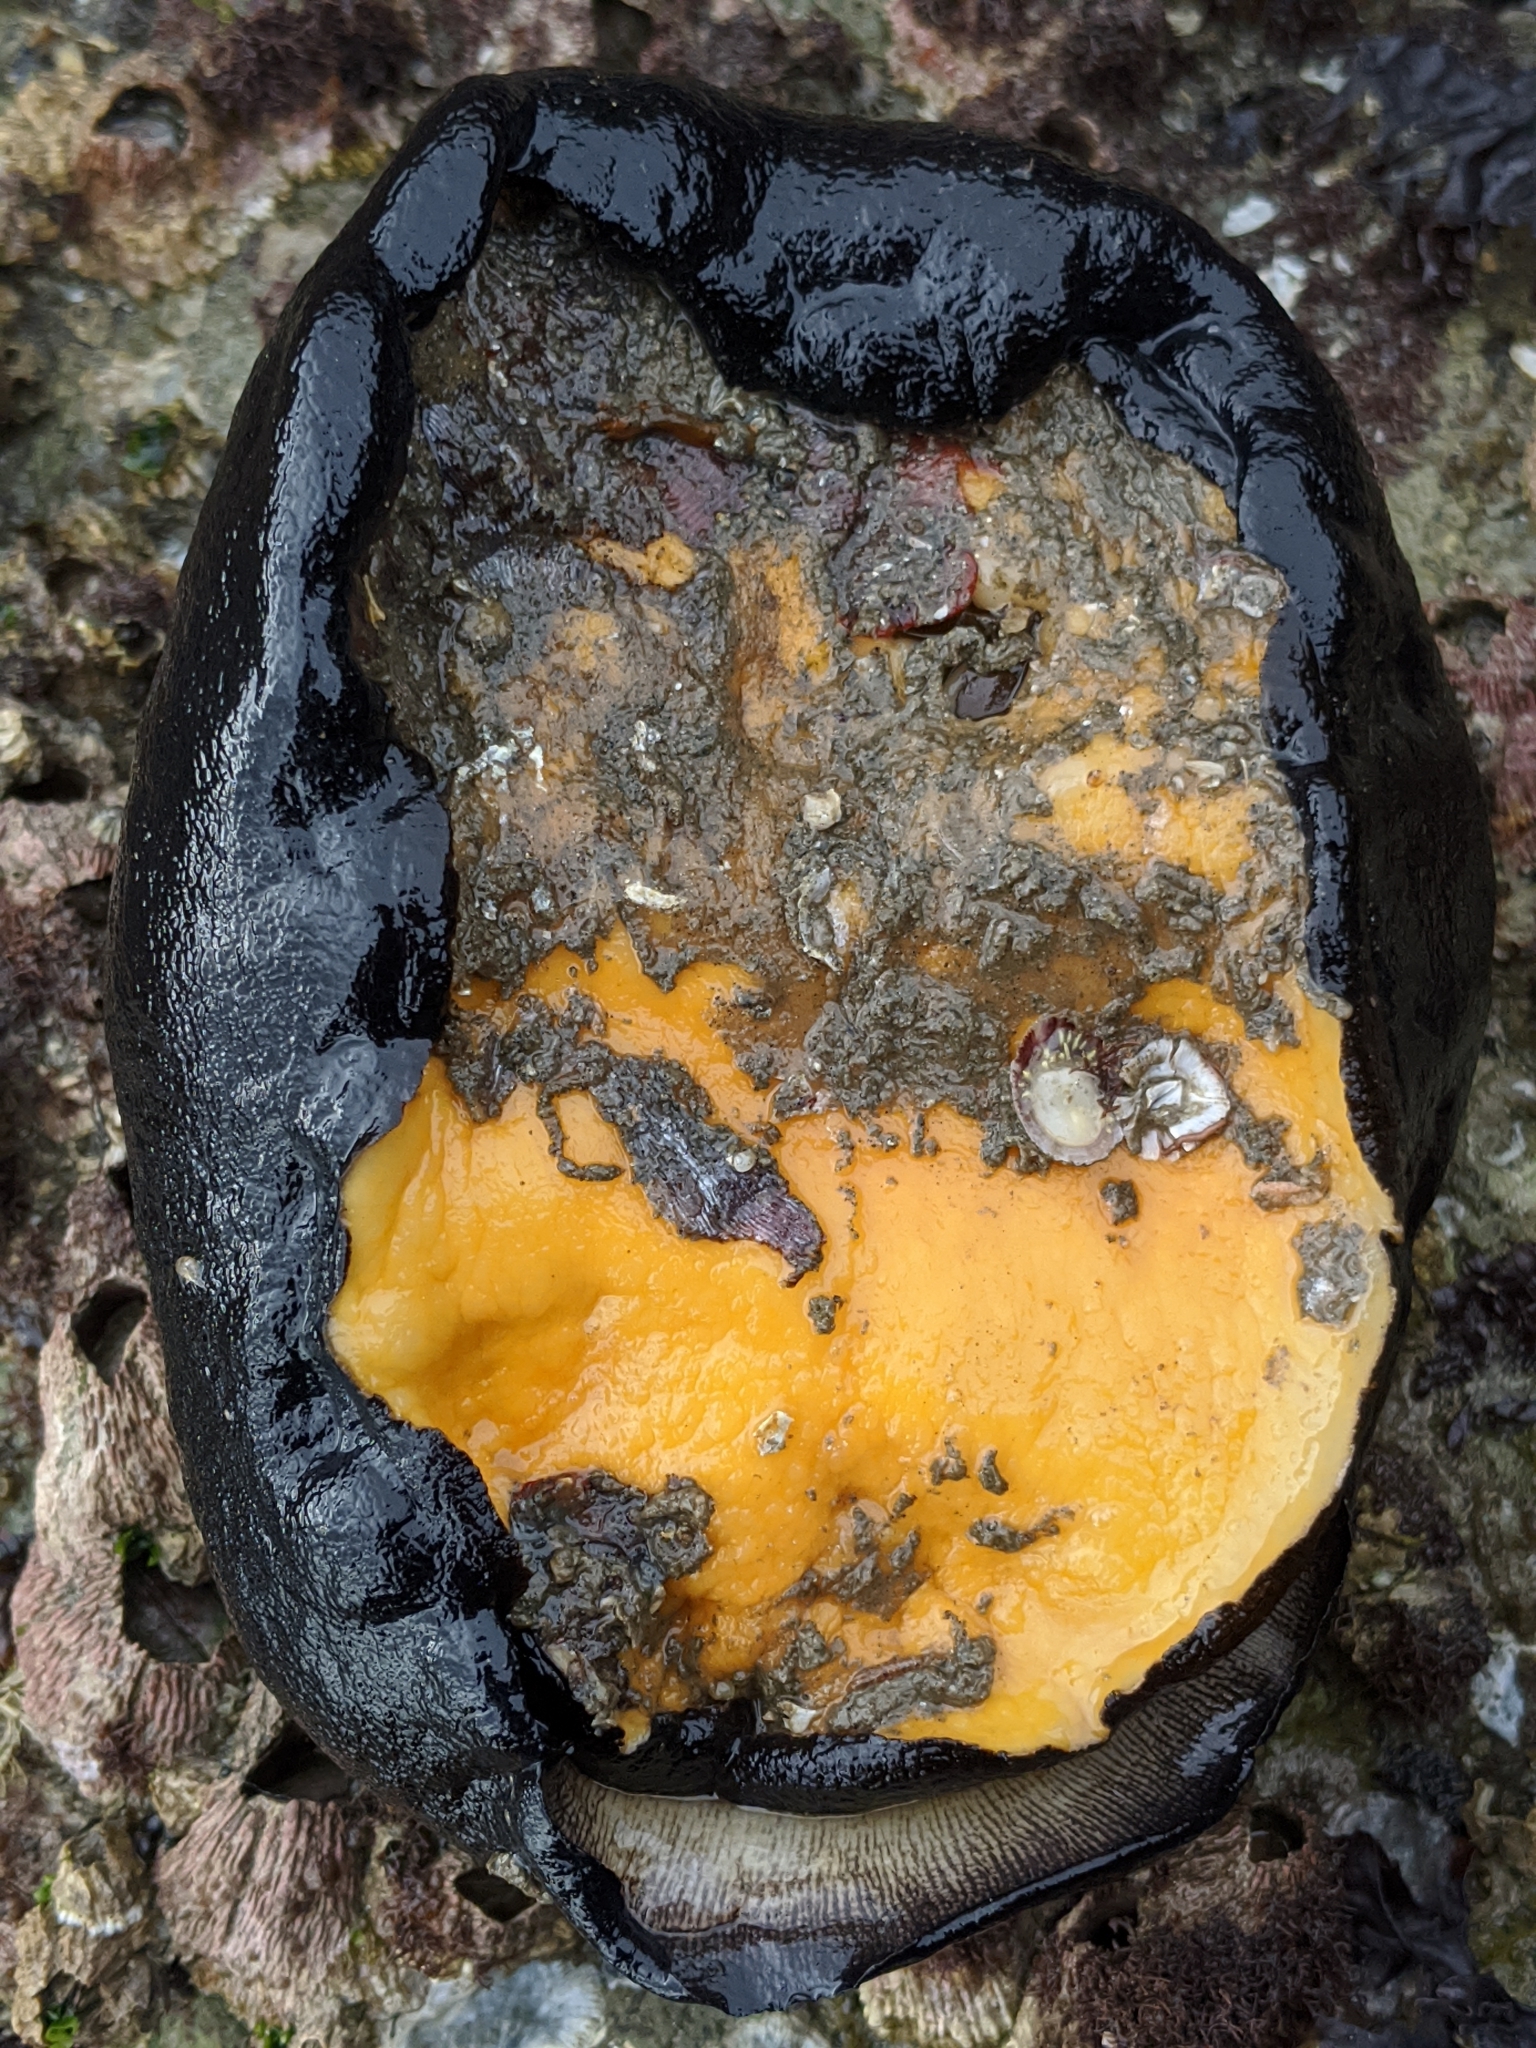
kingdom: Animalia
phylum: Mollusca
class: Gastropoda
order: Lepetellida
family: Fissurellidae
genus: Megathura
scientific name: Megathura crenulata
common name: Giant keyhole limpet
